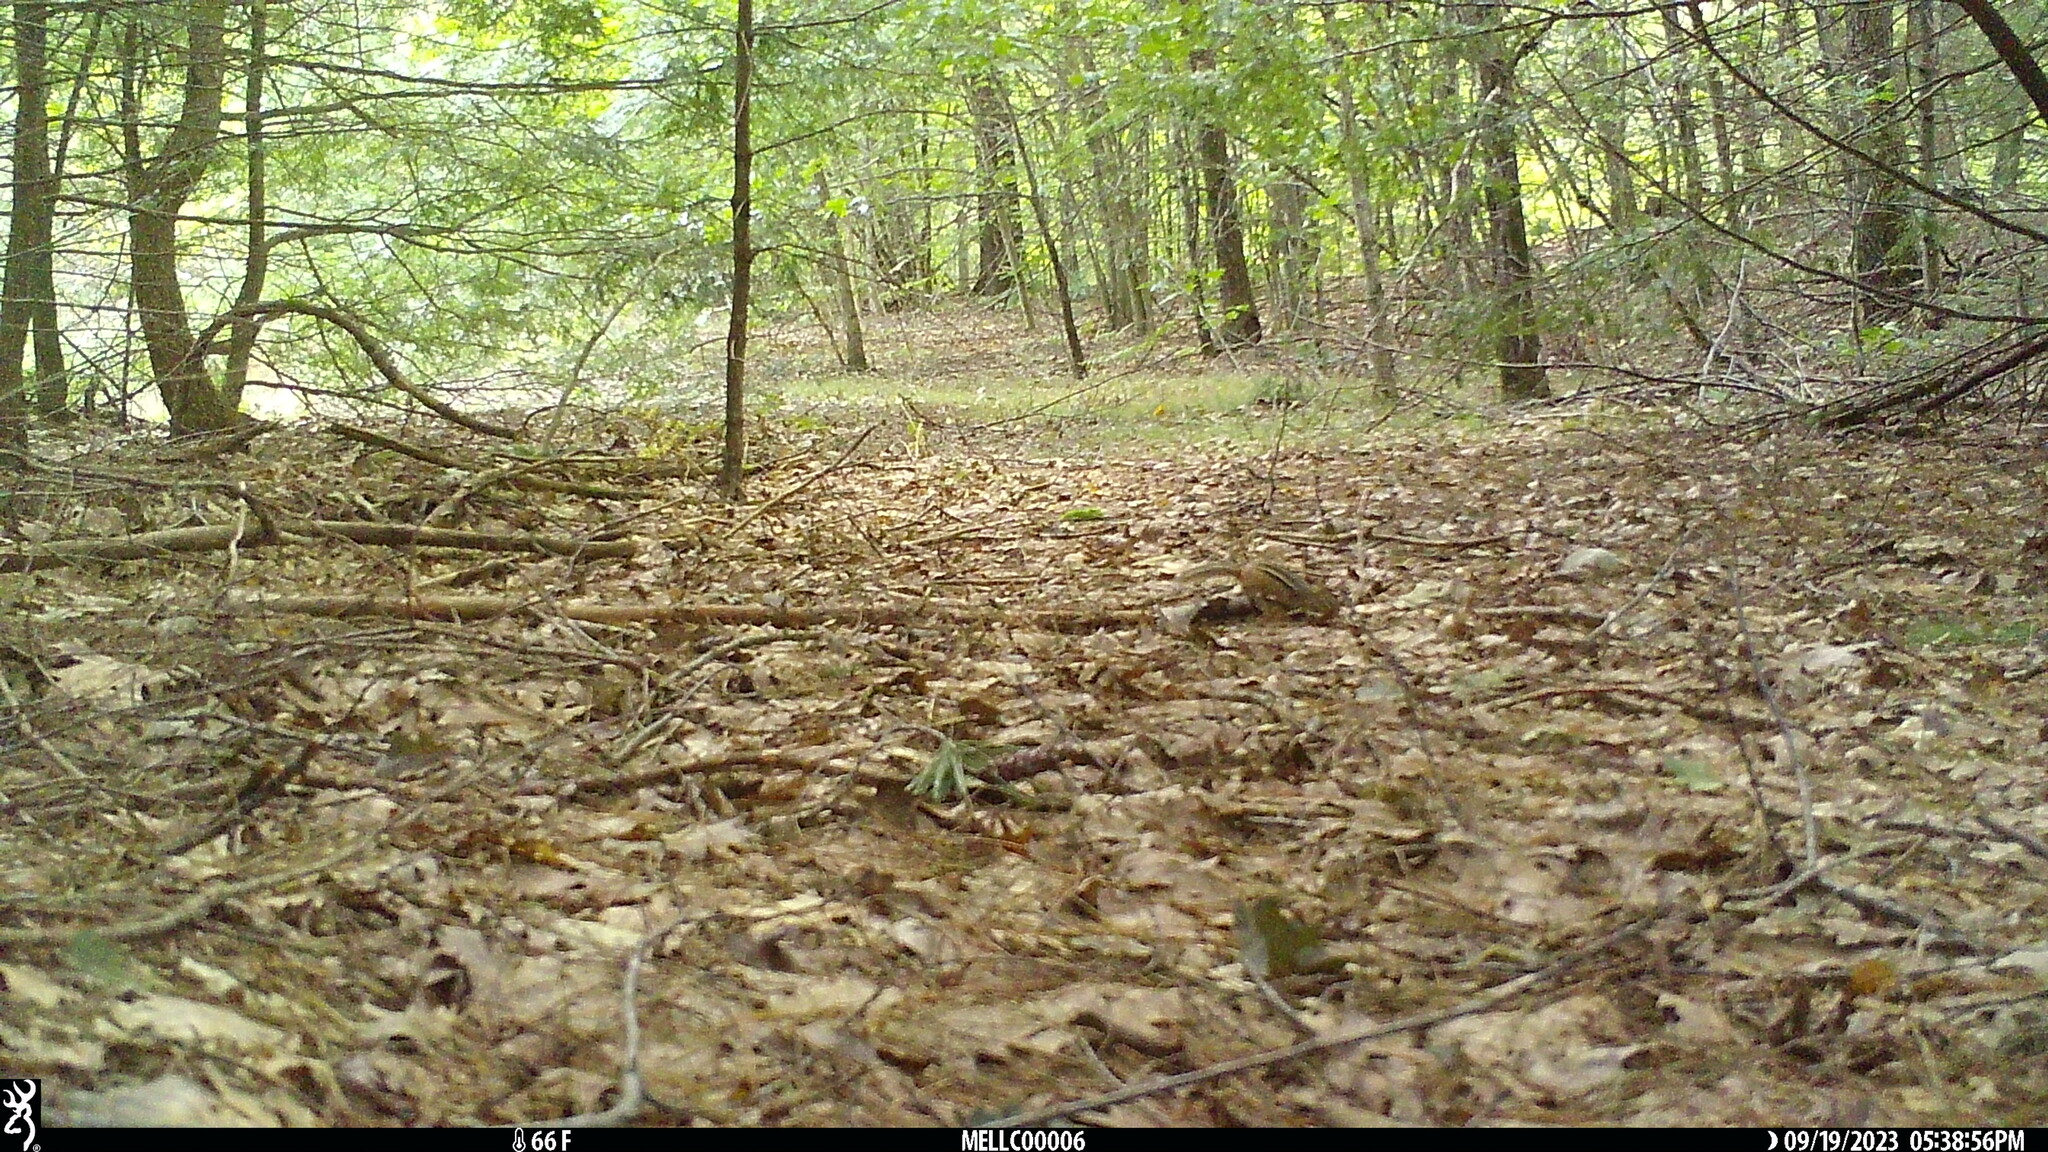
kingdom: Animalia
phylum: Chordata
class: Mammalia
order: Rodentia
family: Sciuridae
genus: Tamias
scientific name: Tamias striatus
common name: Eastern chipmunk
